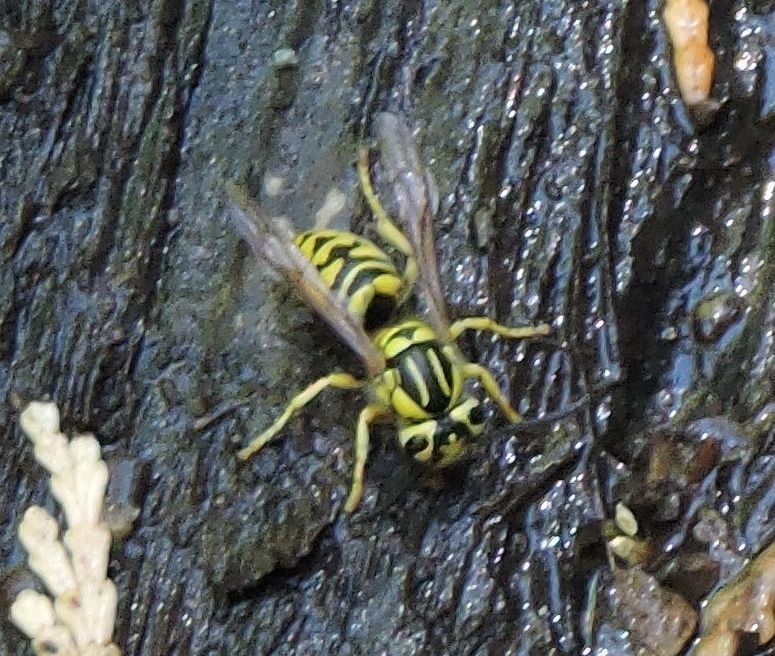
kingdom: Animalia
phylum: Arthropoda
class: Insecta
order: Hymenoptera
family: Vespidae
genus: Vespula
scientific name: Vespula sulphurea
